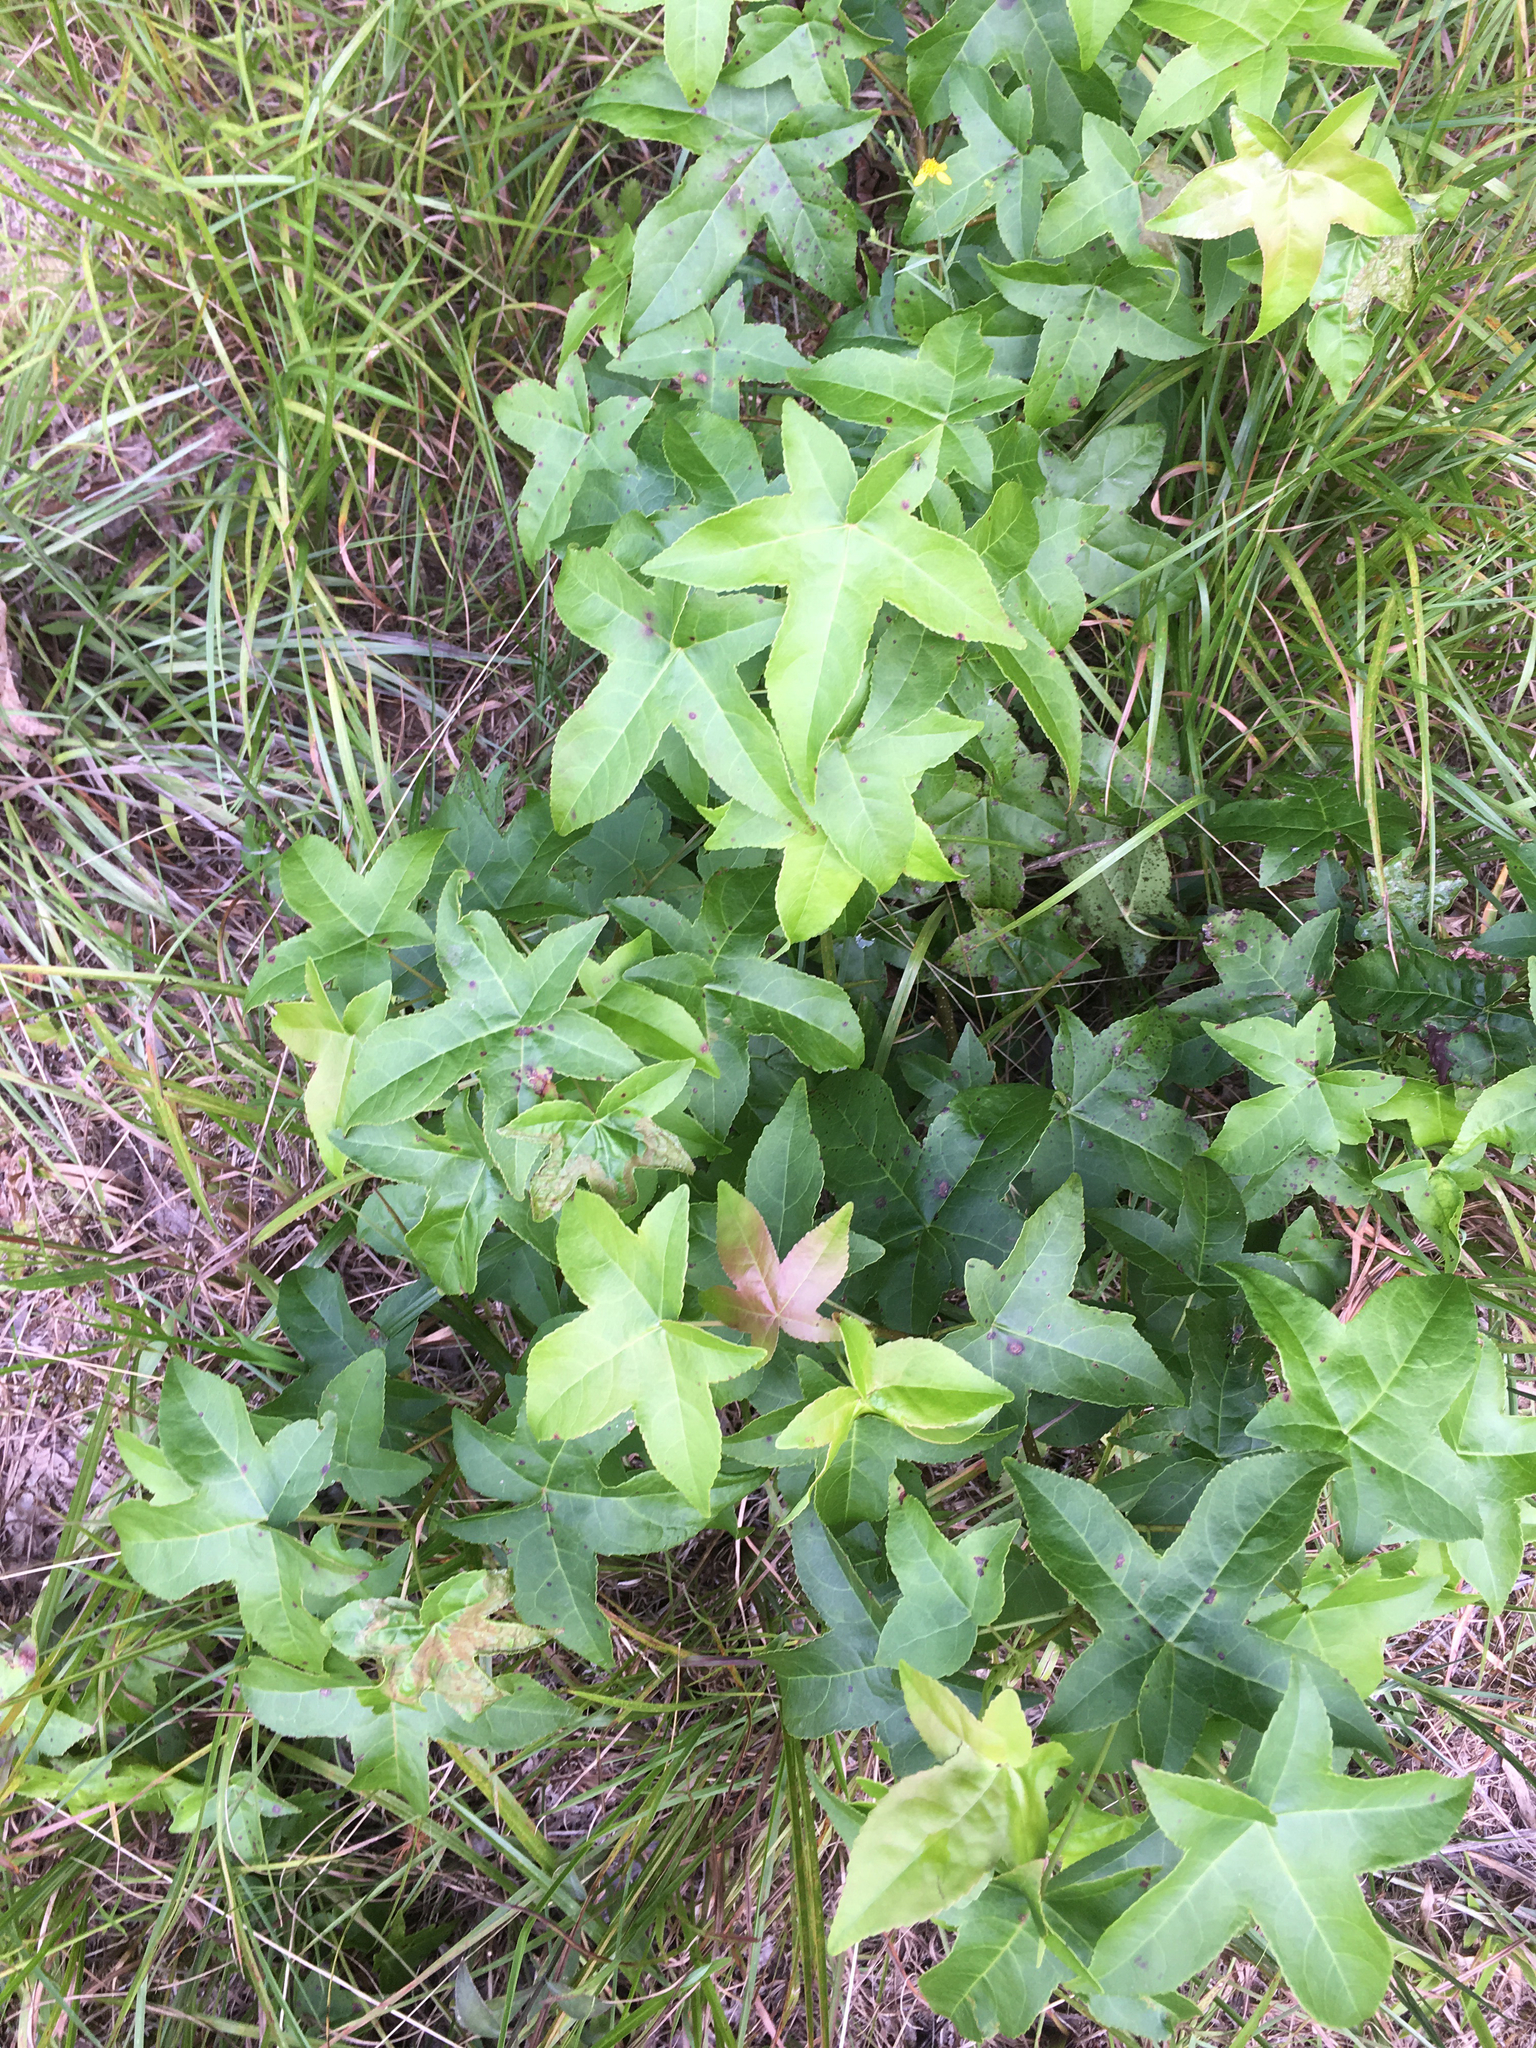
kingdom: Plantae
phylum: Tracheophyta
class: Magnoliopsida
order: Saxifragales
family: Altingiaceae
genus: Liquidambar
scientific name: Liquidambar styraciflua
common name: Sweet gum
